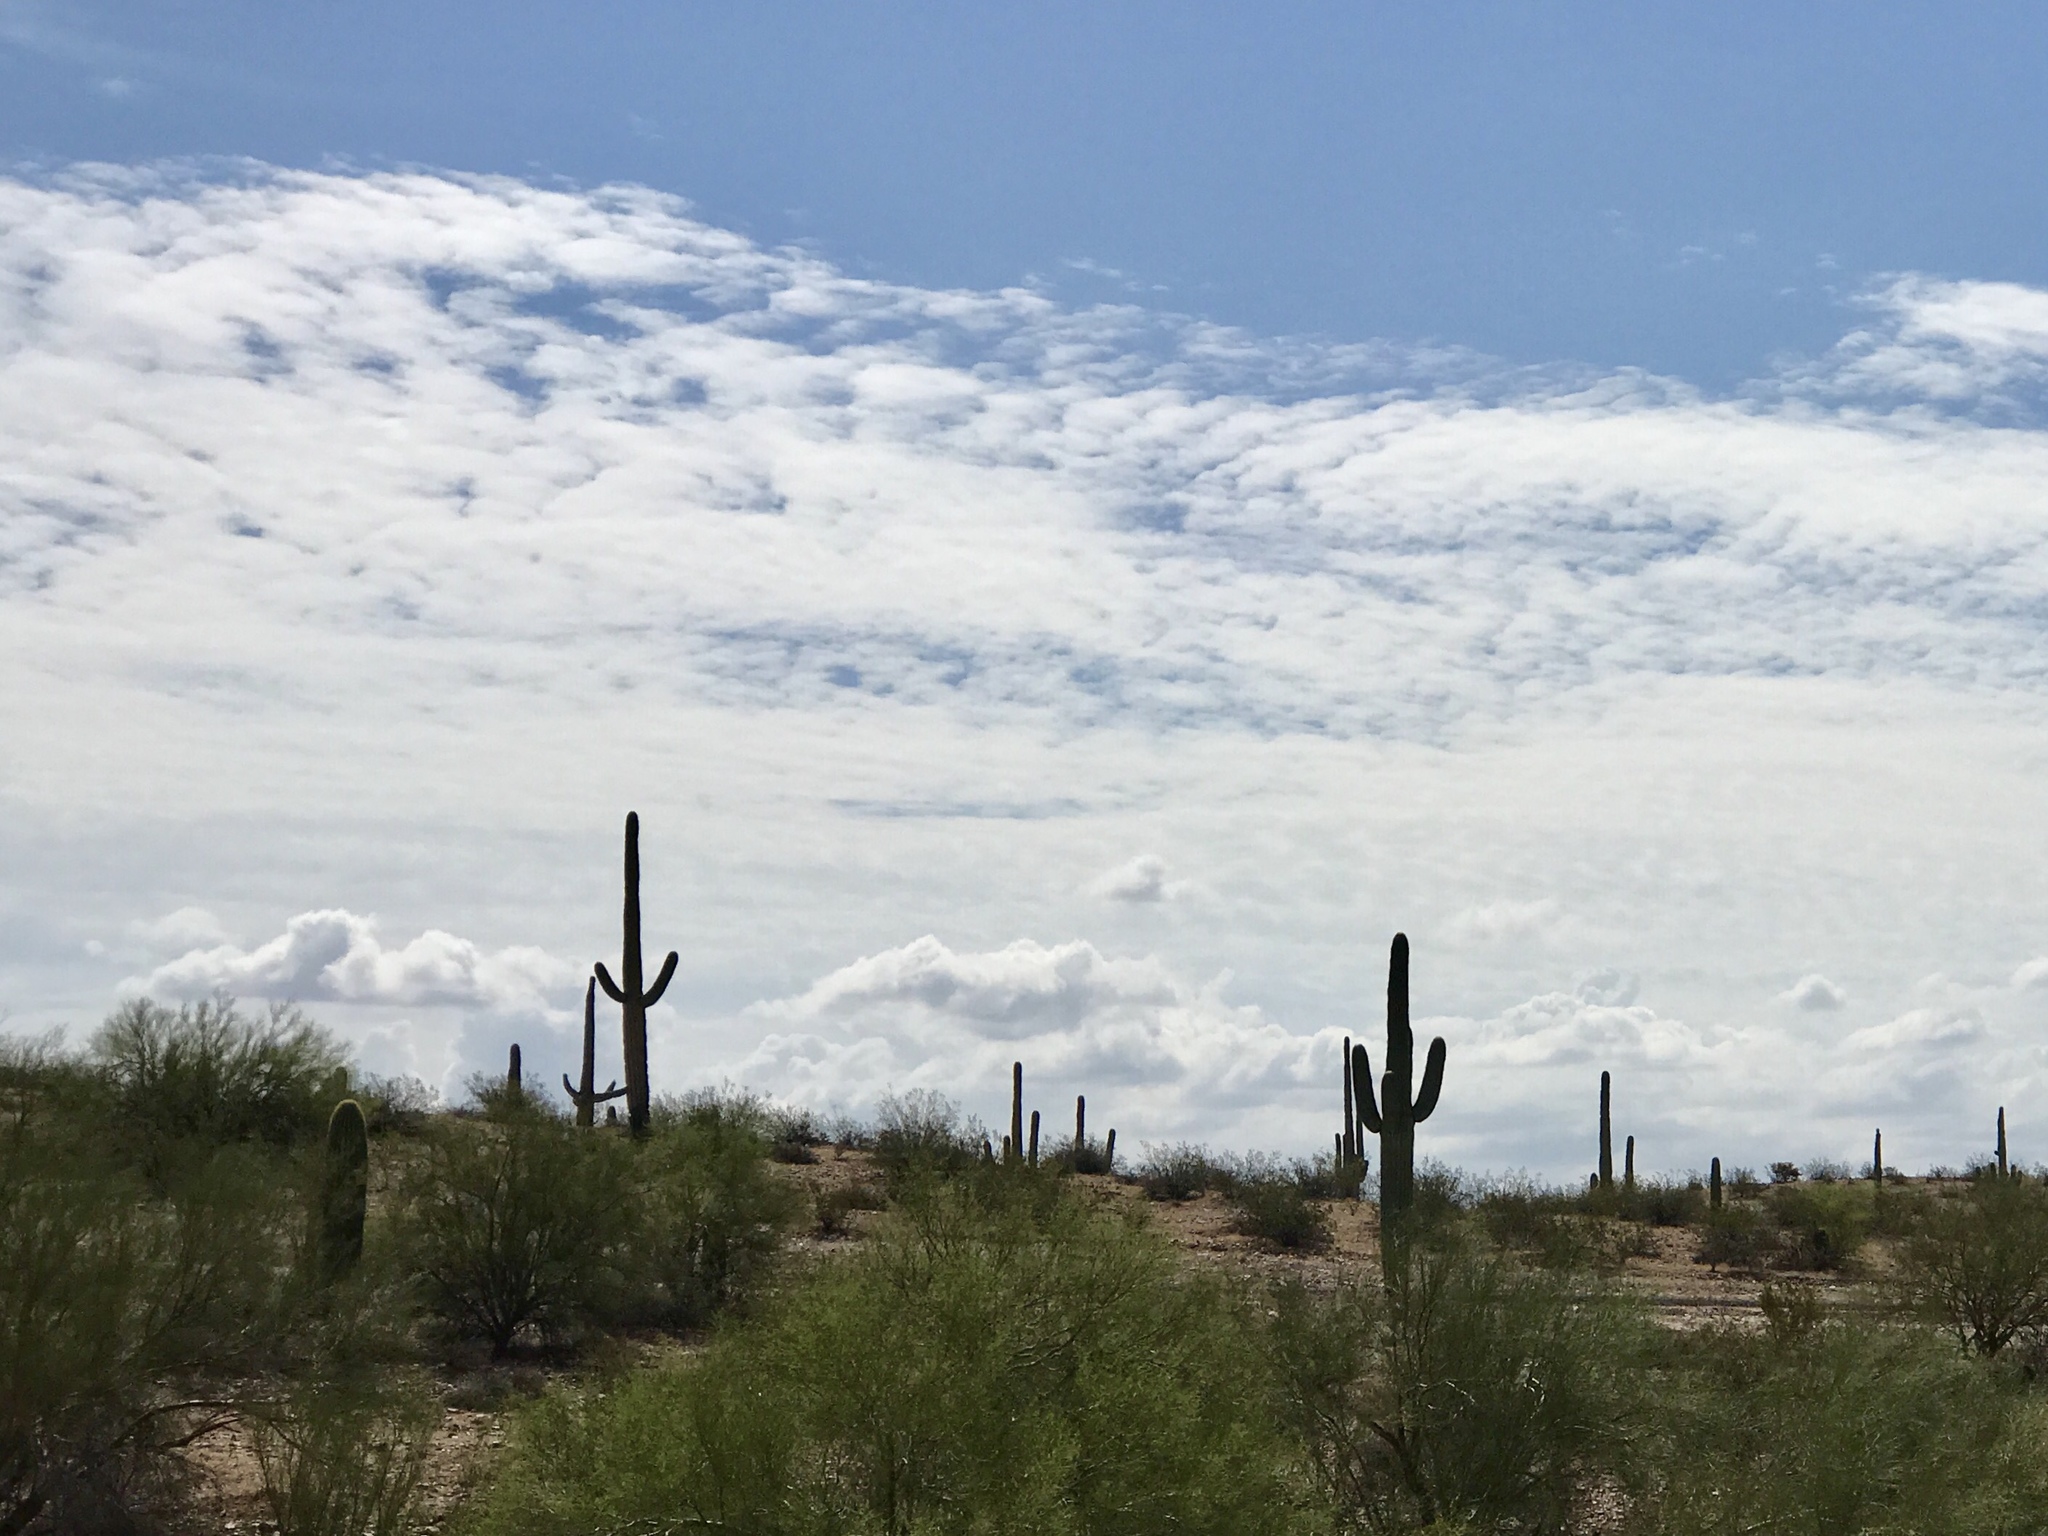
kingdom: Plantae
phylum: Tracheophyta
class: Magnoliopsida
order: Caryophyllales
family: Cactaceae
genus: Carnegiea
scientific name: Carnegiea gigantea
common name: Saguaro
